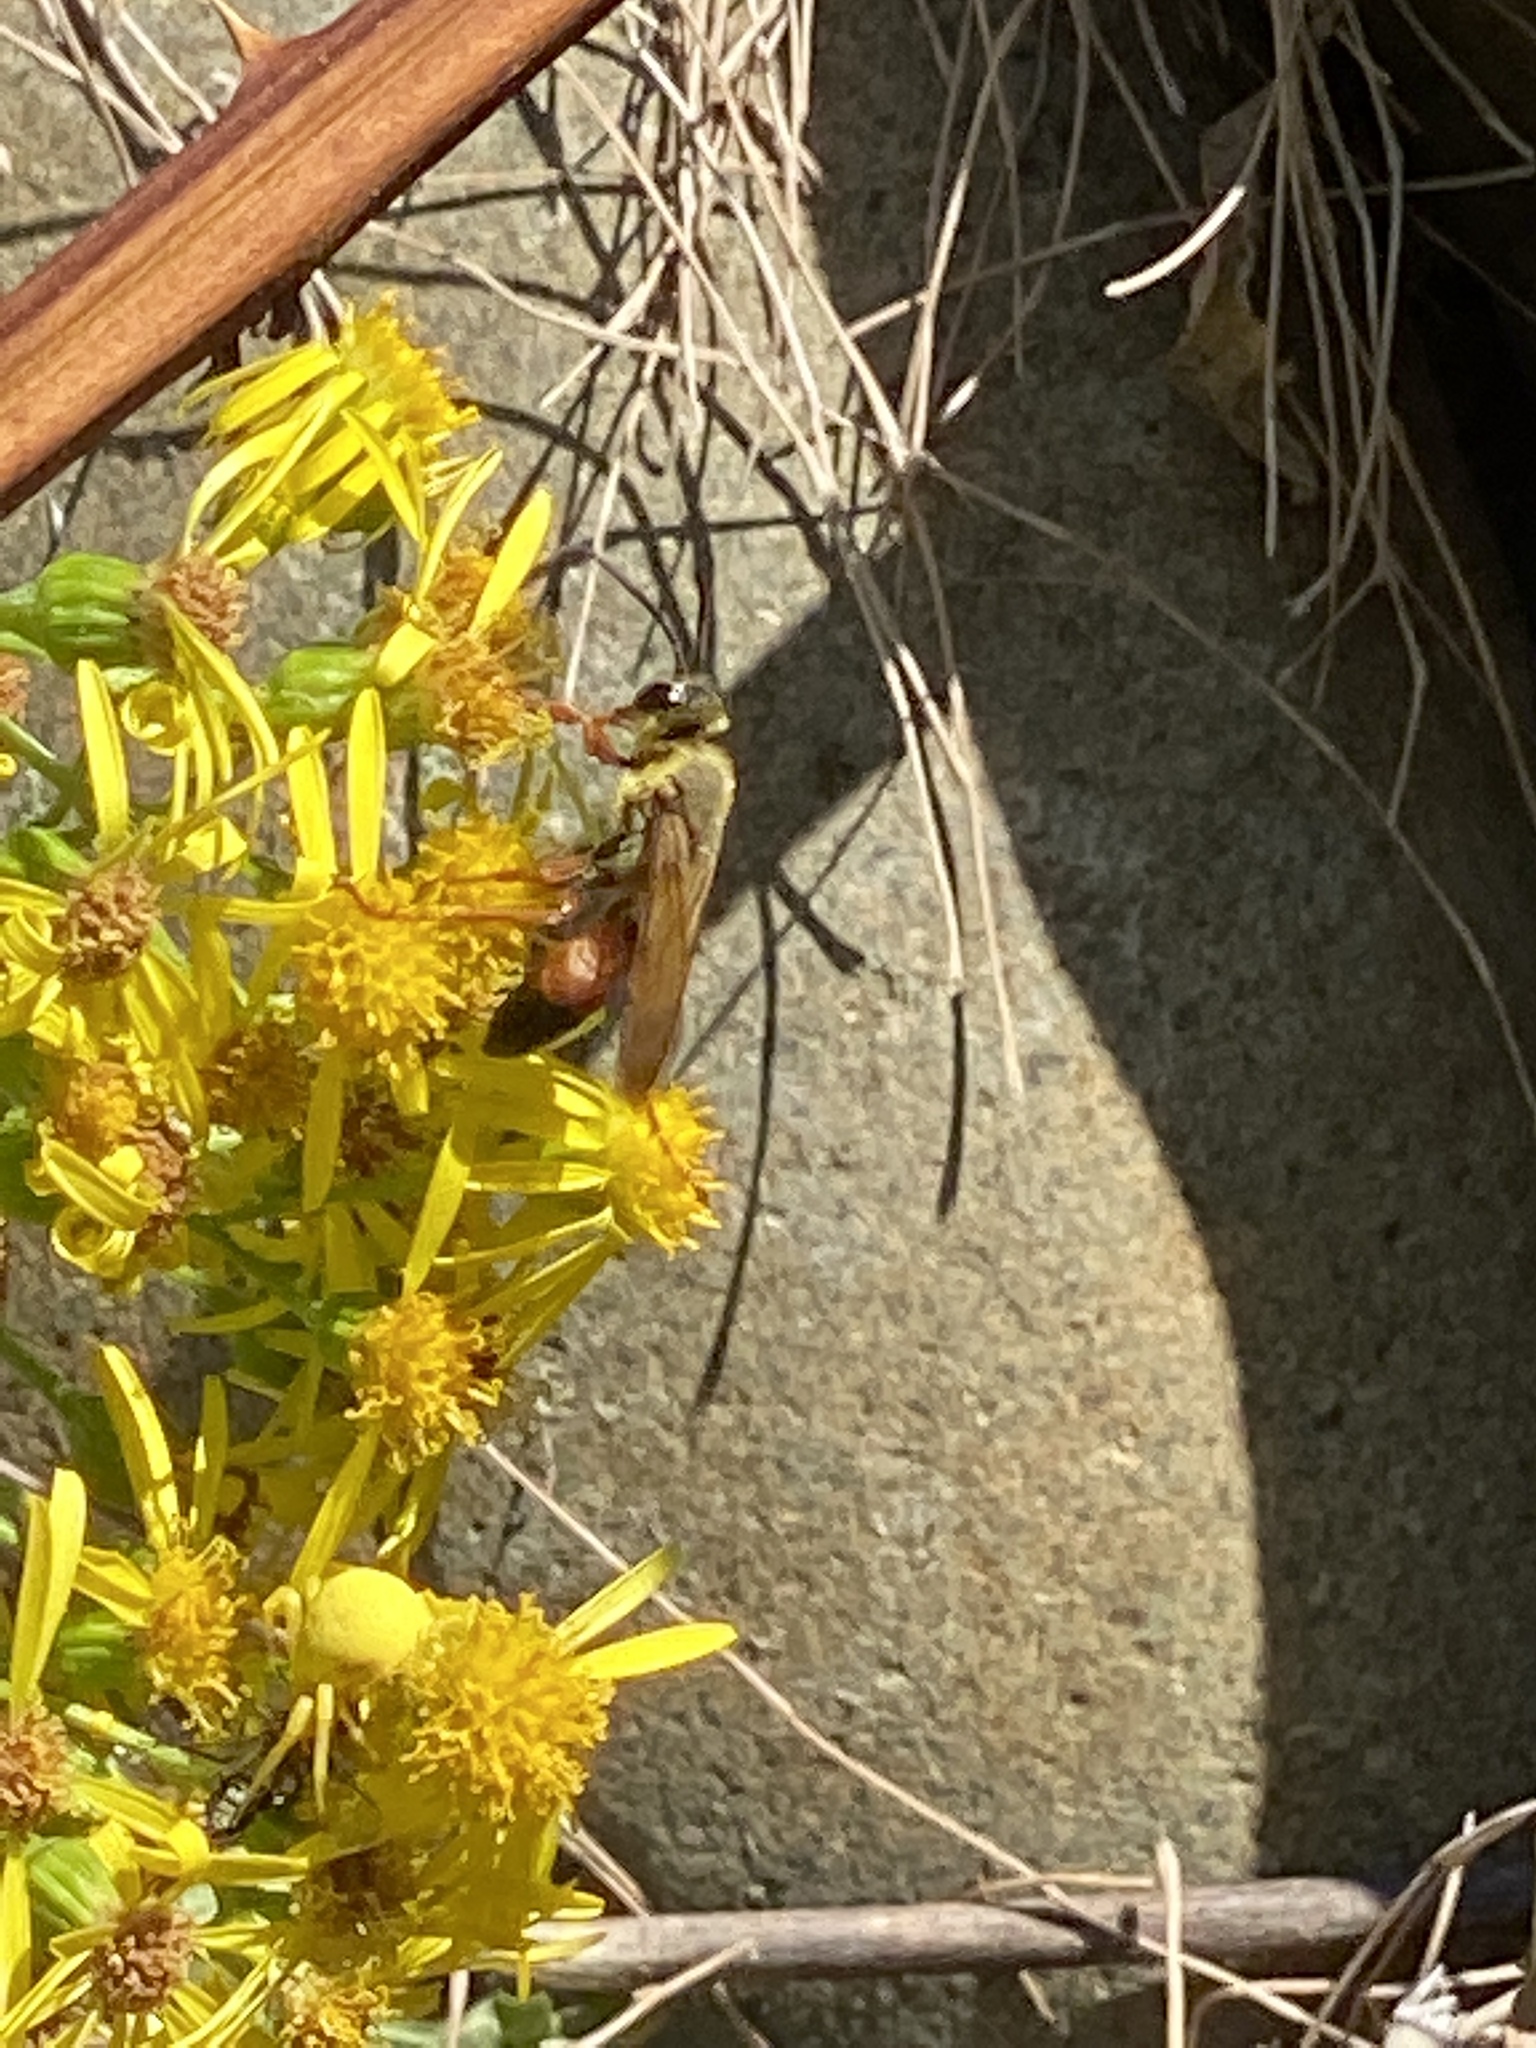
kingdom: Animalia
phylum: Arthropoda
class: Insecta
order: Hymenoptera
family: Sphecidae
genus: Sphex
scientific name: Sphex ichneumoneus
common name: Great golden digger wasp
